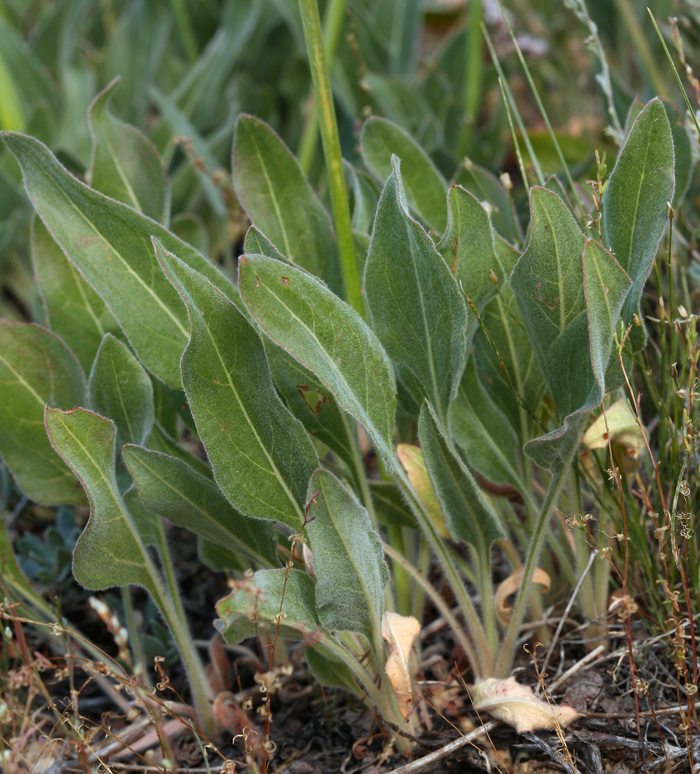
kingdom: Plantae
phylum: Tracheophyta
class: Magnoliopsida
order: Caryophyllales
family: Polygonaceae
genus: Eriogonum
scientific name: Eriogonum elatum
